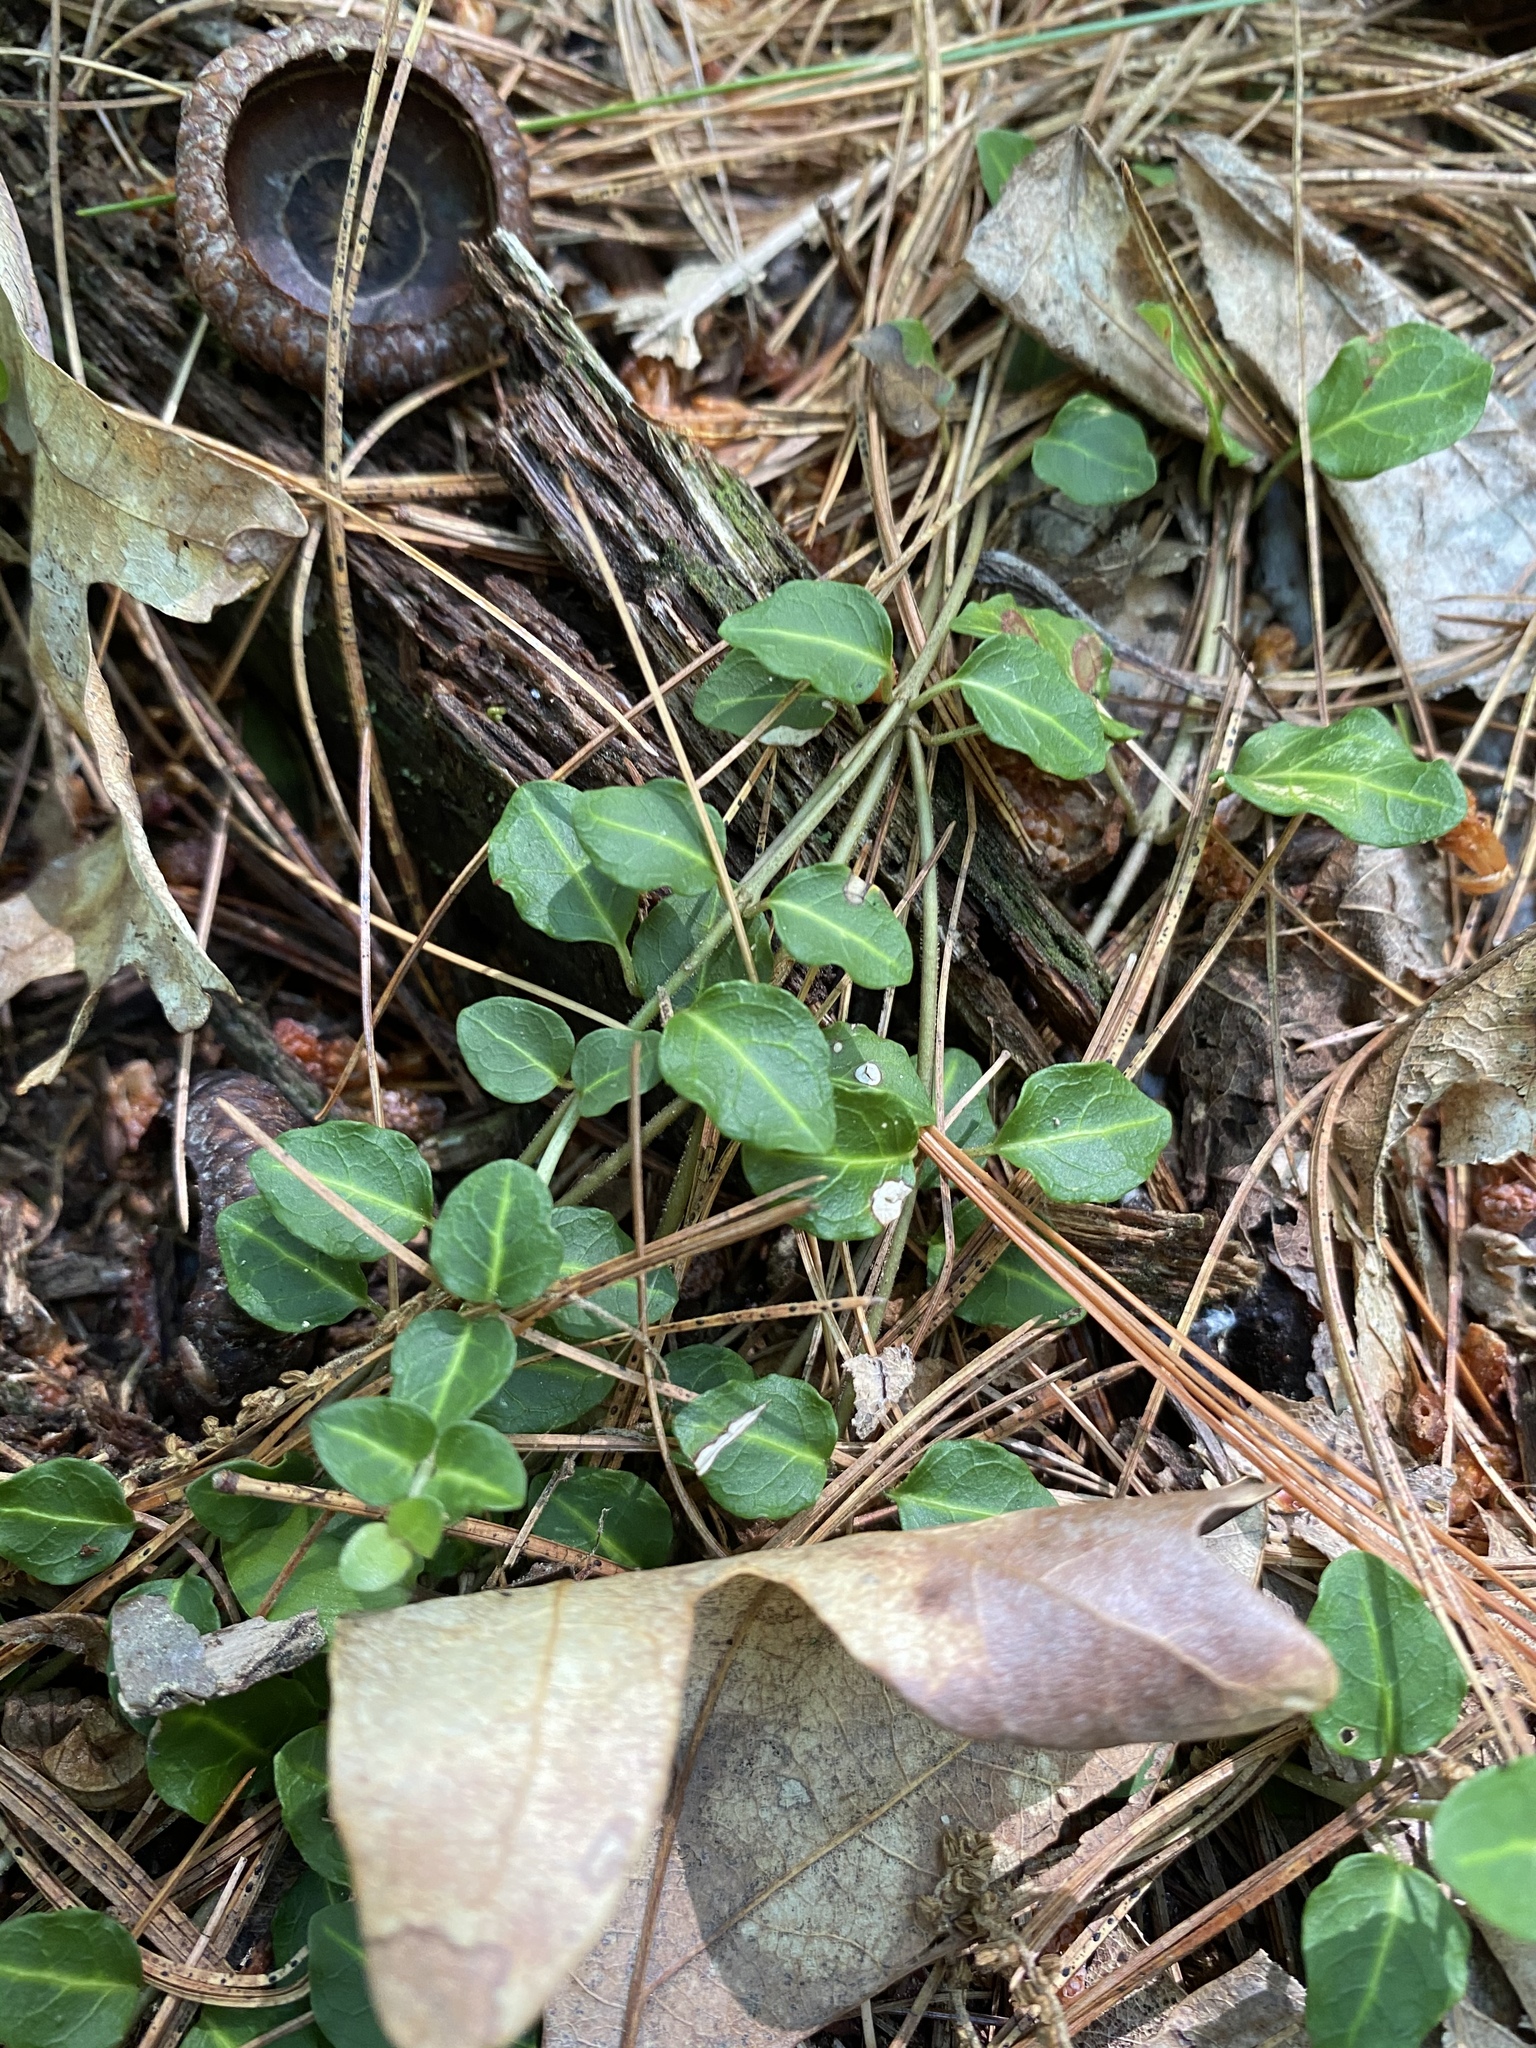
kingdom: Plantae
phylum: Tracheophyta
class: Magnoliopsida
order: Gentianales
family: Rubiaceae
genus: Mitchella
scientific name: Mitchella repens
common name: Partridge-berry
